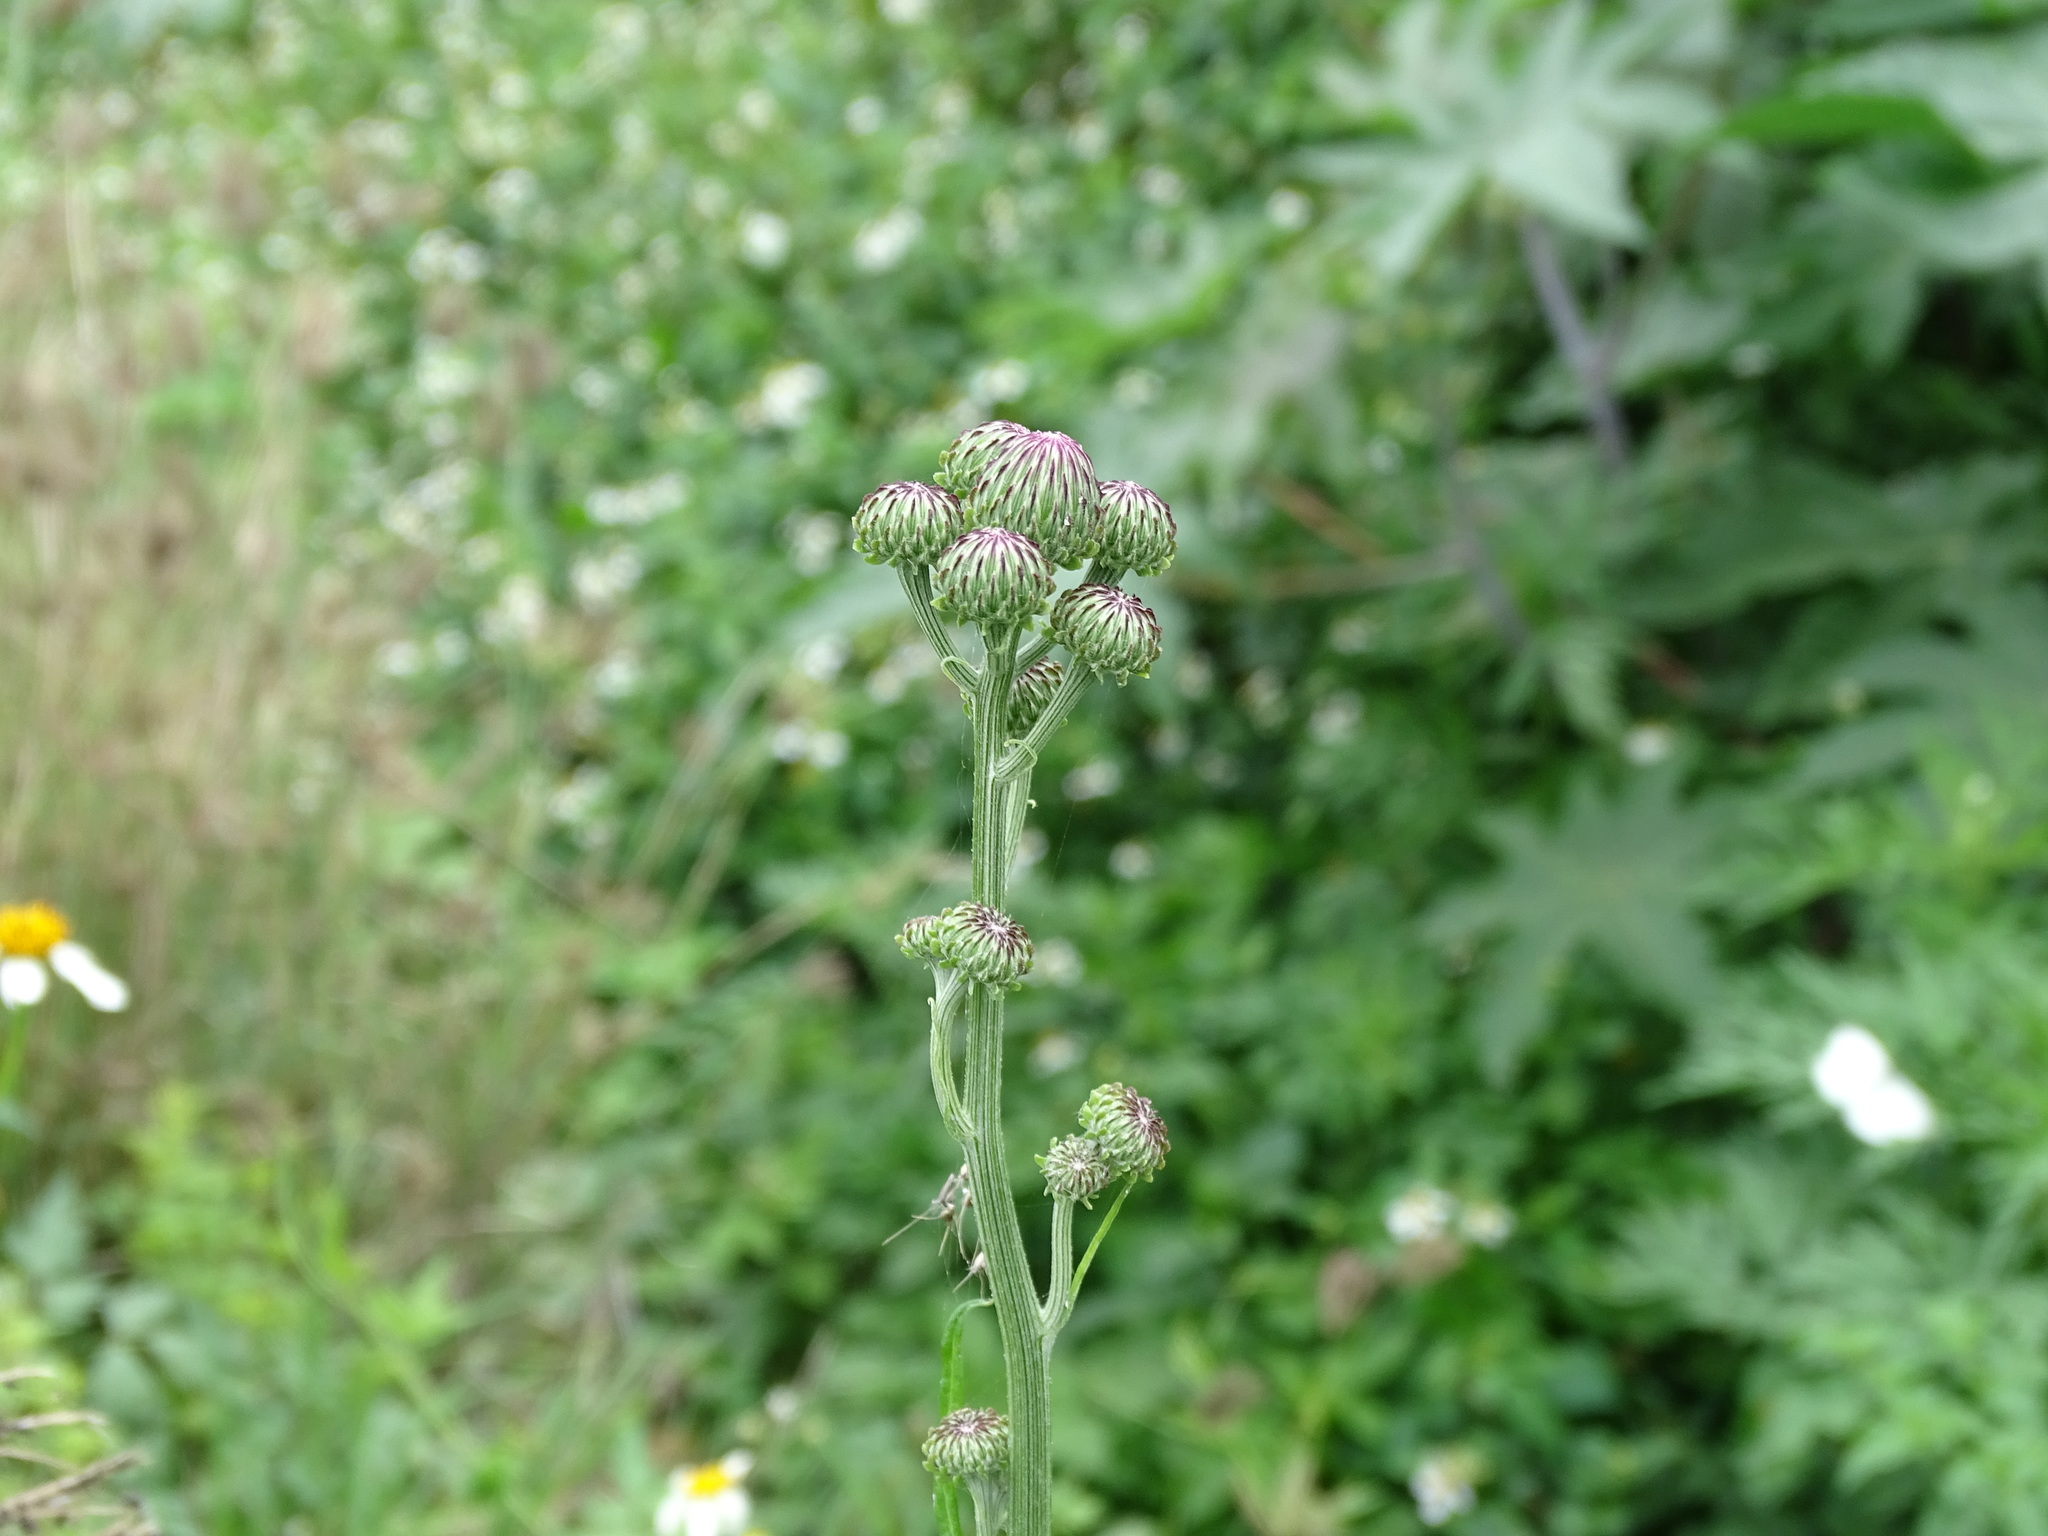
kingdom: Plantae
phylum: Tracheophyta
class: Magnoliopsida
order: Asterales
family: Asteraceae
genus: Saussurea
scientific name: Saussurea lyrata
